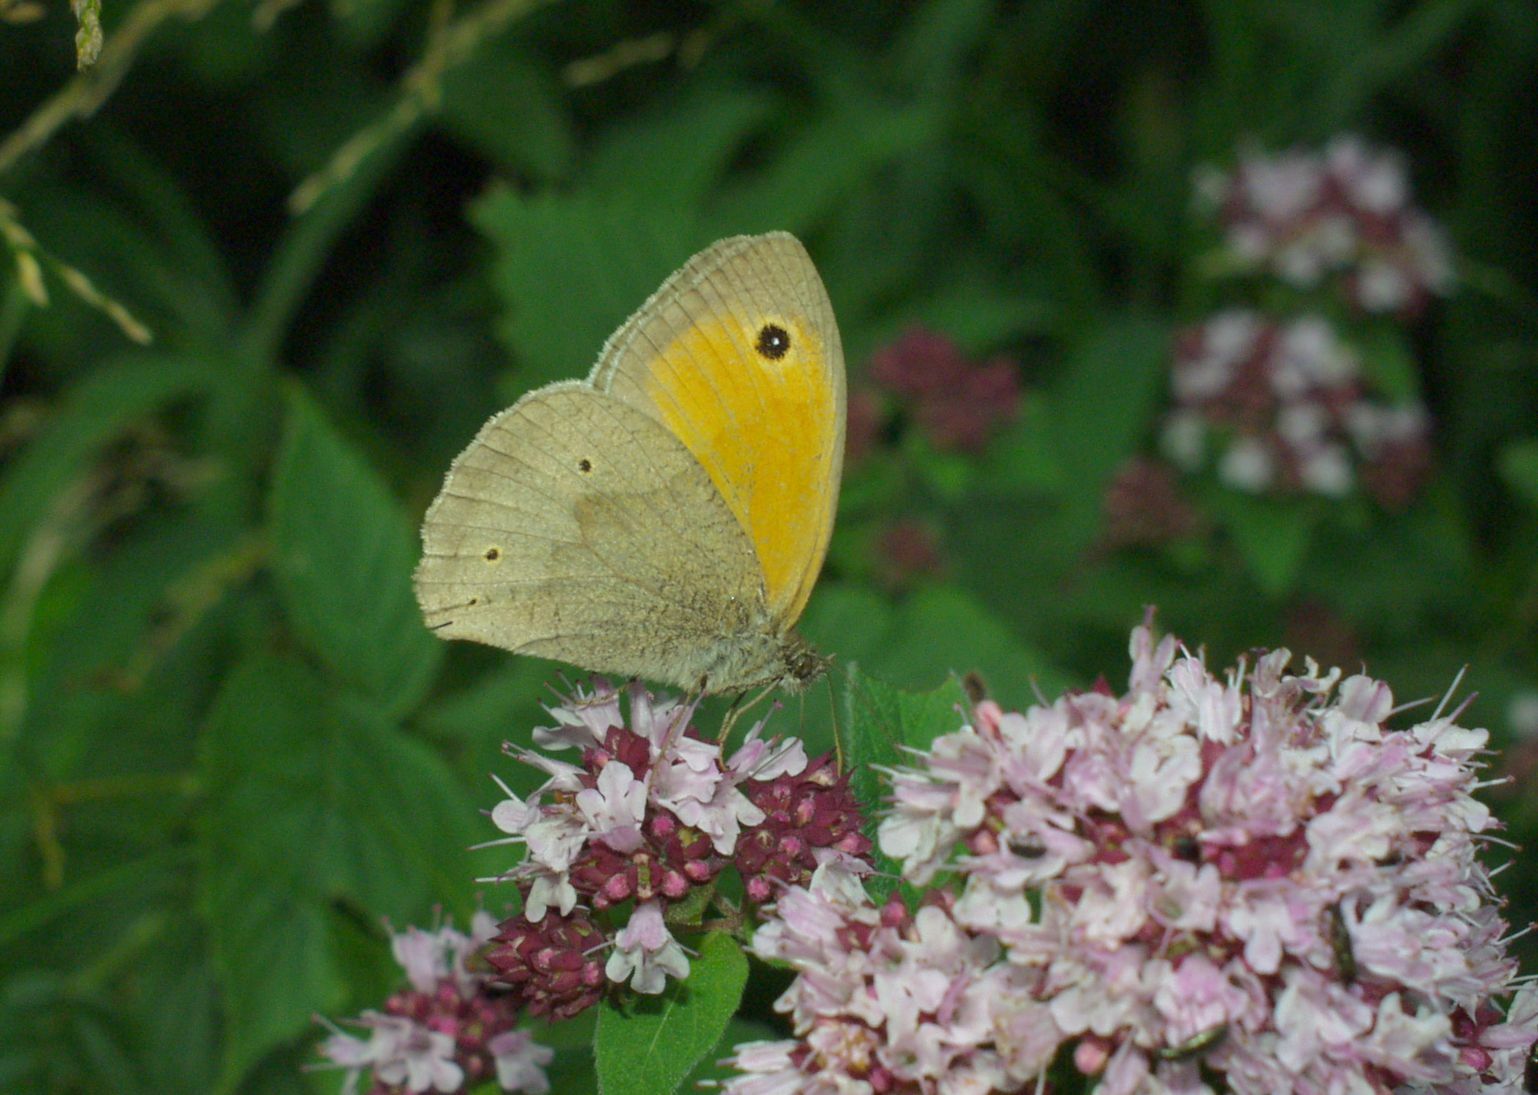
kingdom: Animalia
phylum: Arthropoda
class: Insecta
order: Lepidoptera
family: Nymphalidae
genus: Maniola
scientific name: Maniola jurtina
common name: Meadow brown
